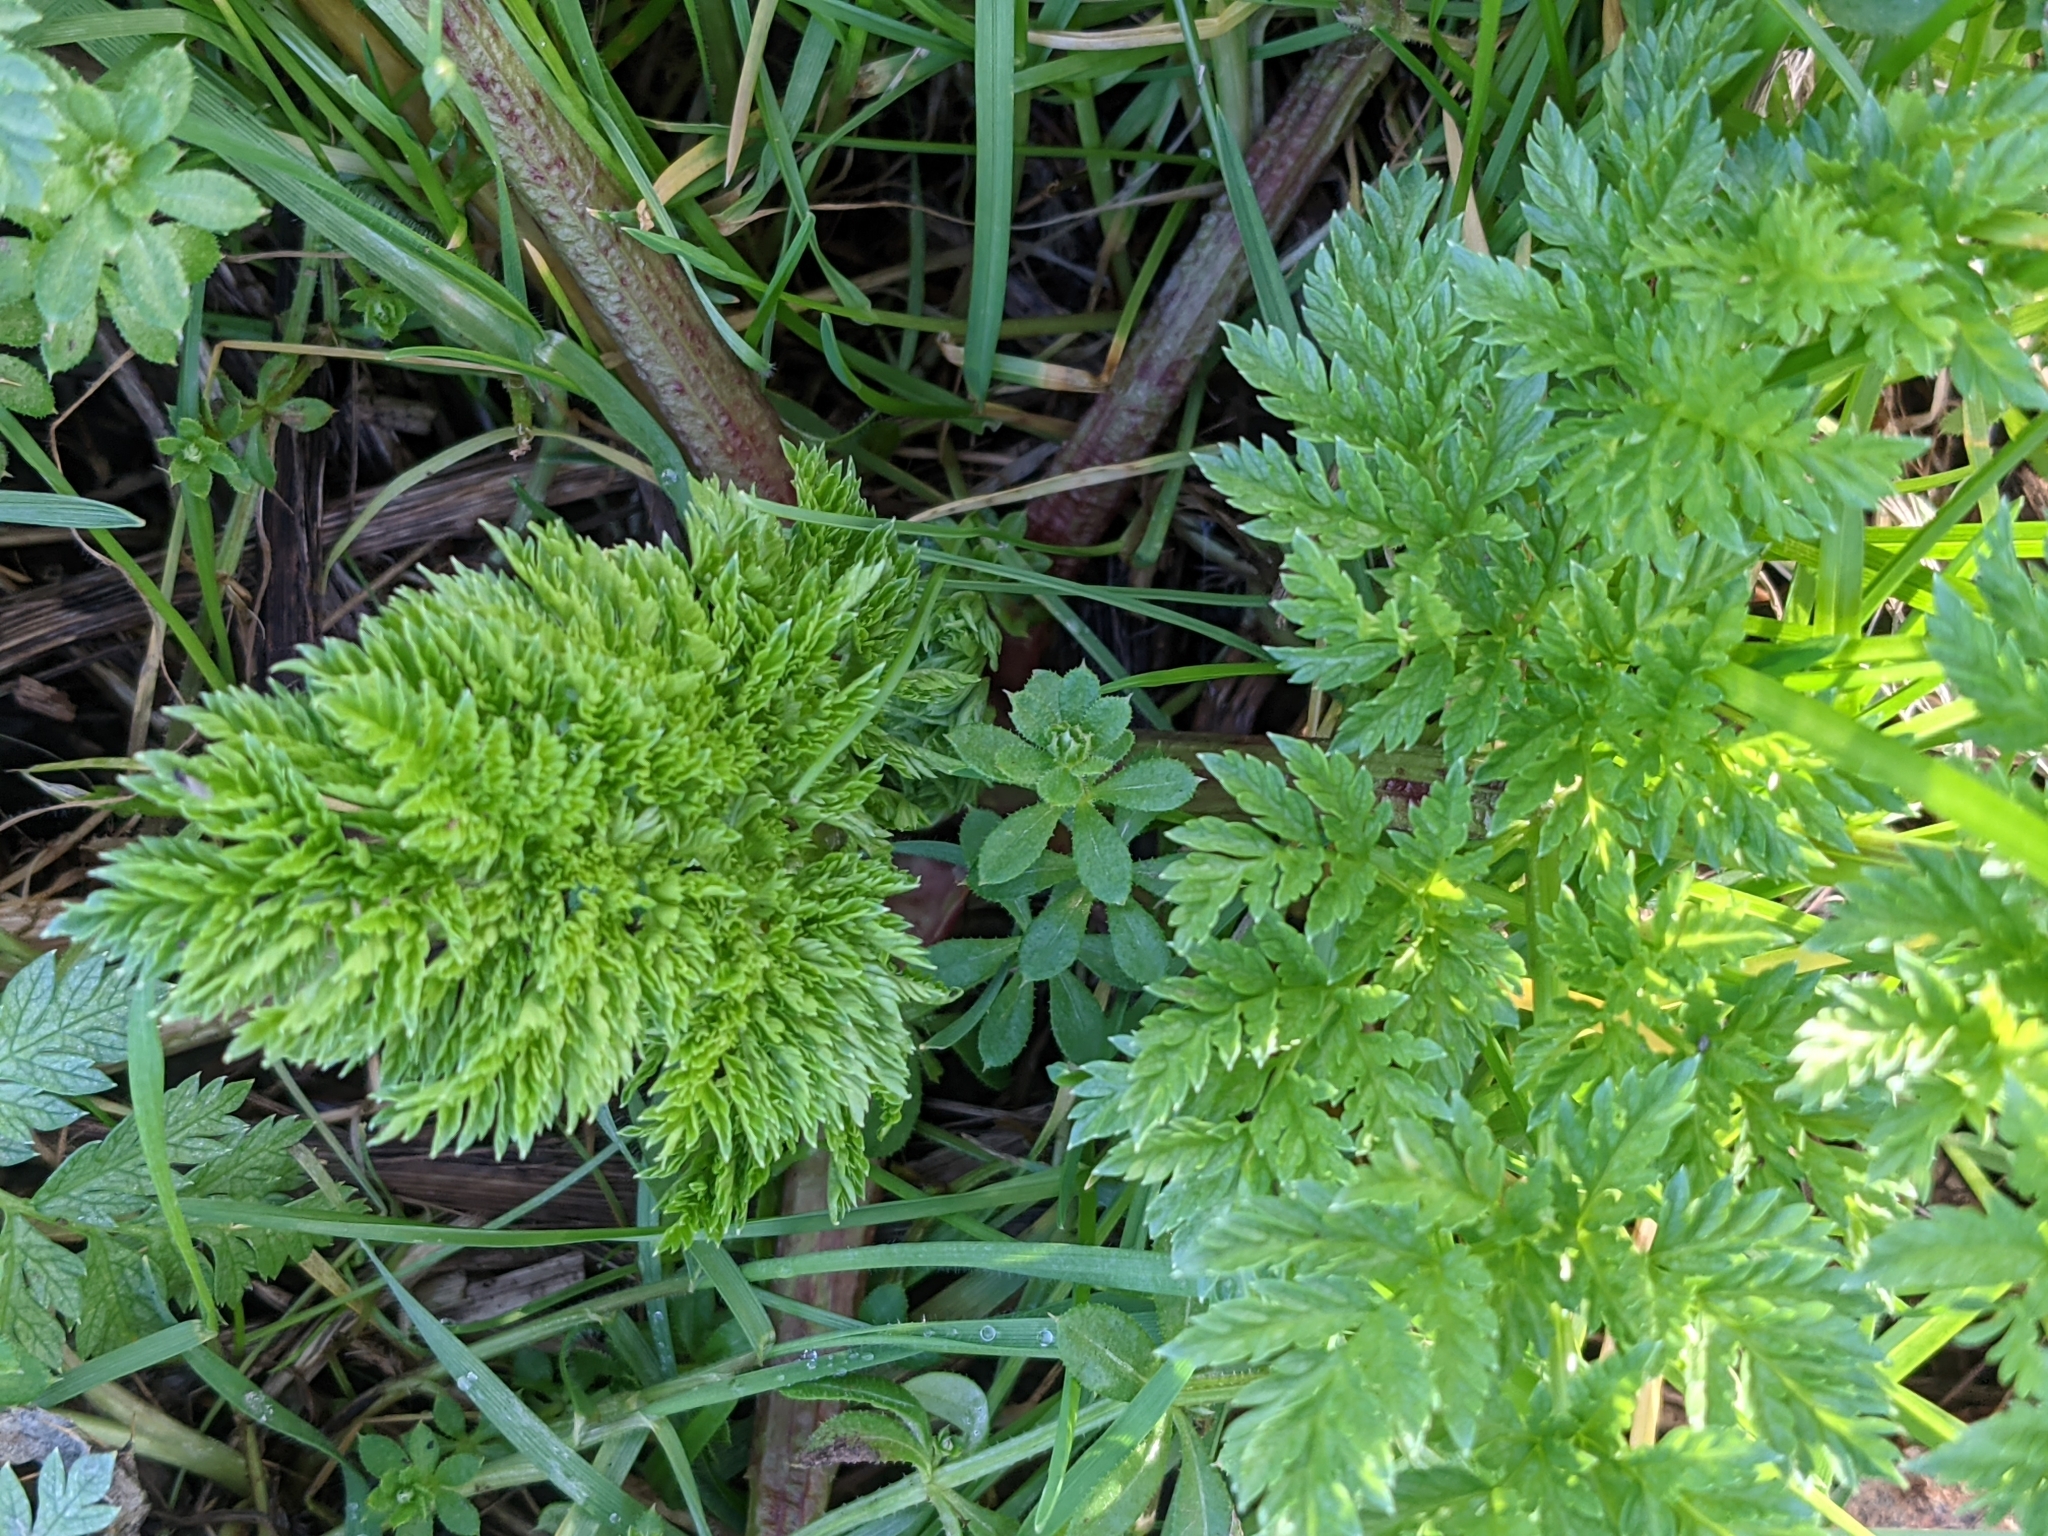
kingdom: Plantae
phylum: Tracheophyta
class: Magnoliopsida
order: Apiales
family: Apiaceae
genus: Conium
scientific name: Conium maculatum
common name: Hemlock
